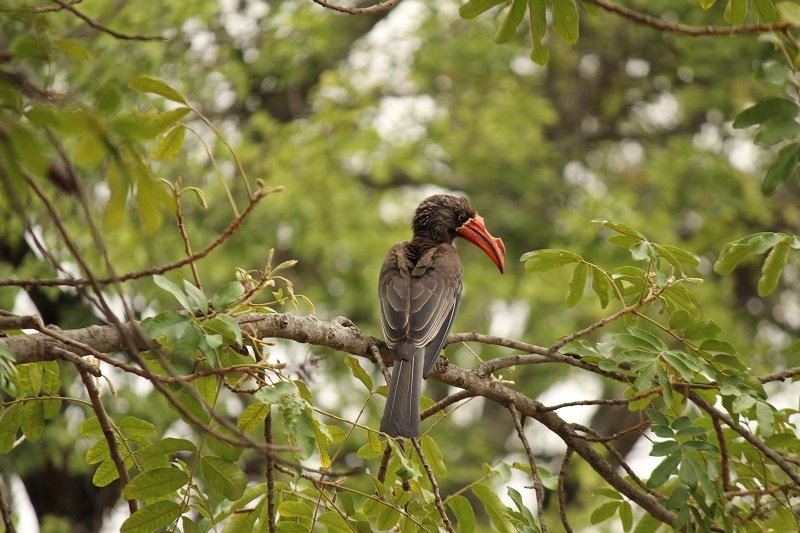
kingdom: Animalia
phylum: Chordata
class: Aves
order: Bucerotiformes
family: Bucerotidae
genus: Lophoceros
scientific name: Lophoceros alboterminatus
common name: Crowned hornbill
